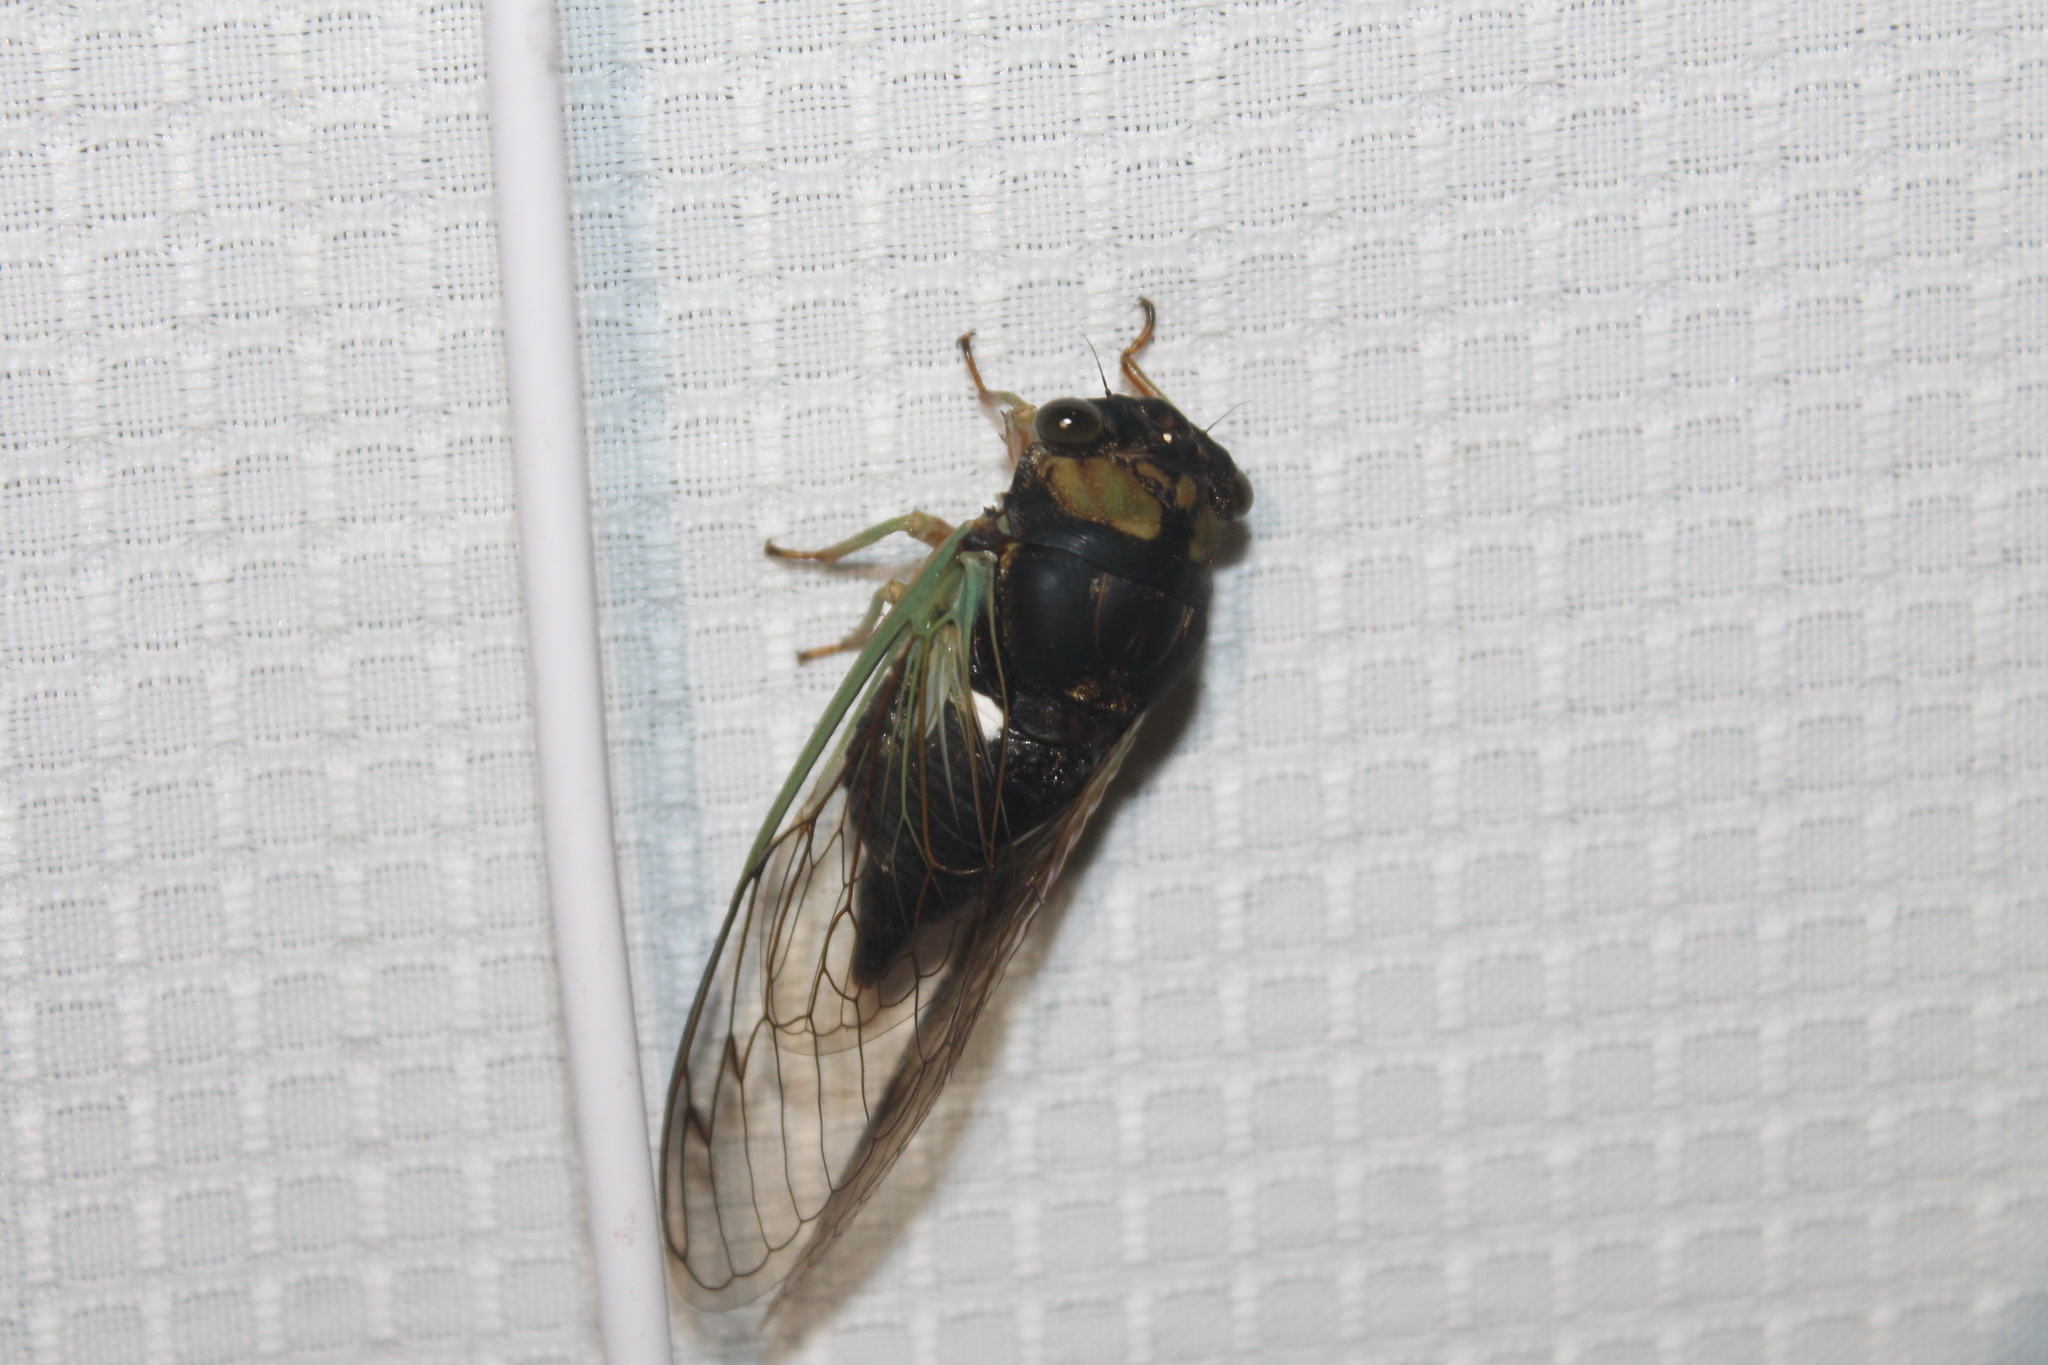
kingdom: Animalia
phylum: Arthropoda
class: Insecta
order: Hemiptera
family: Cicadidae
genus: Neotibicen
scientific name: Neotibicen tibicen
